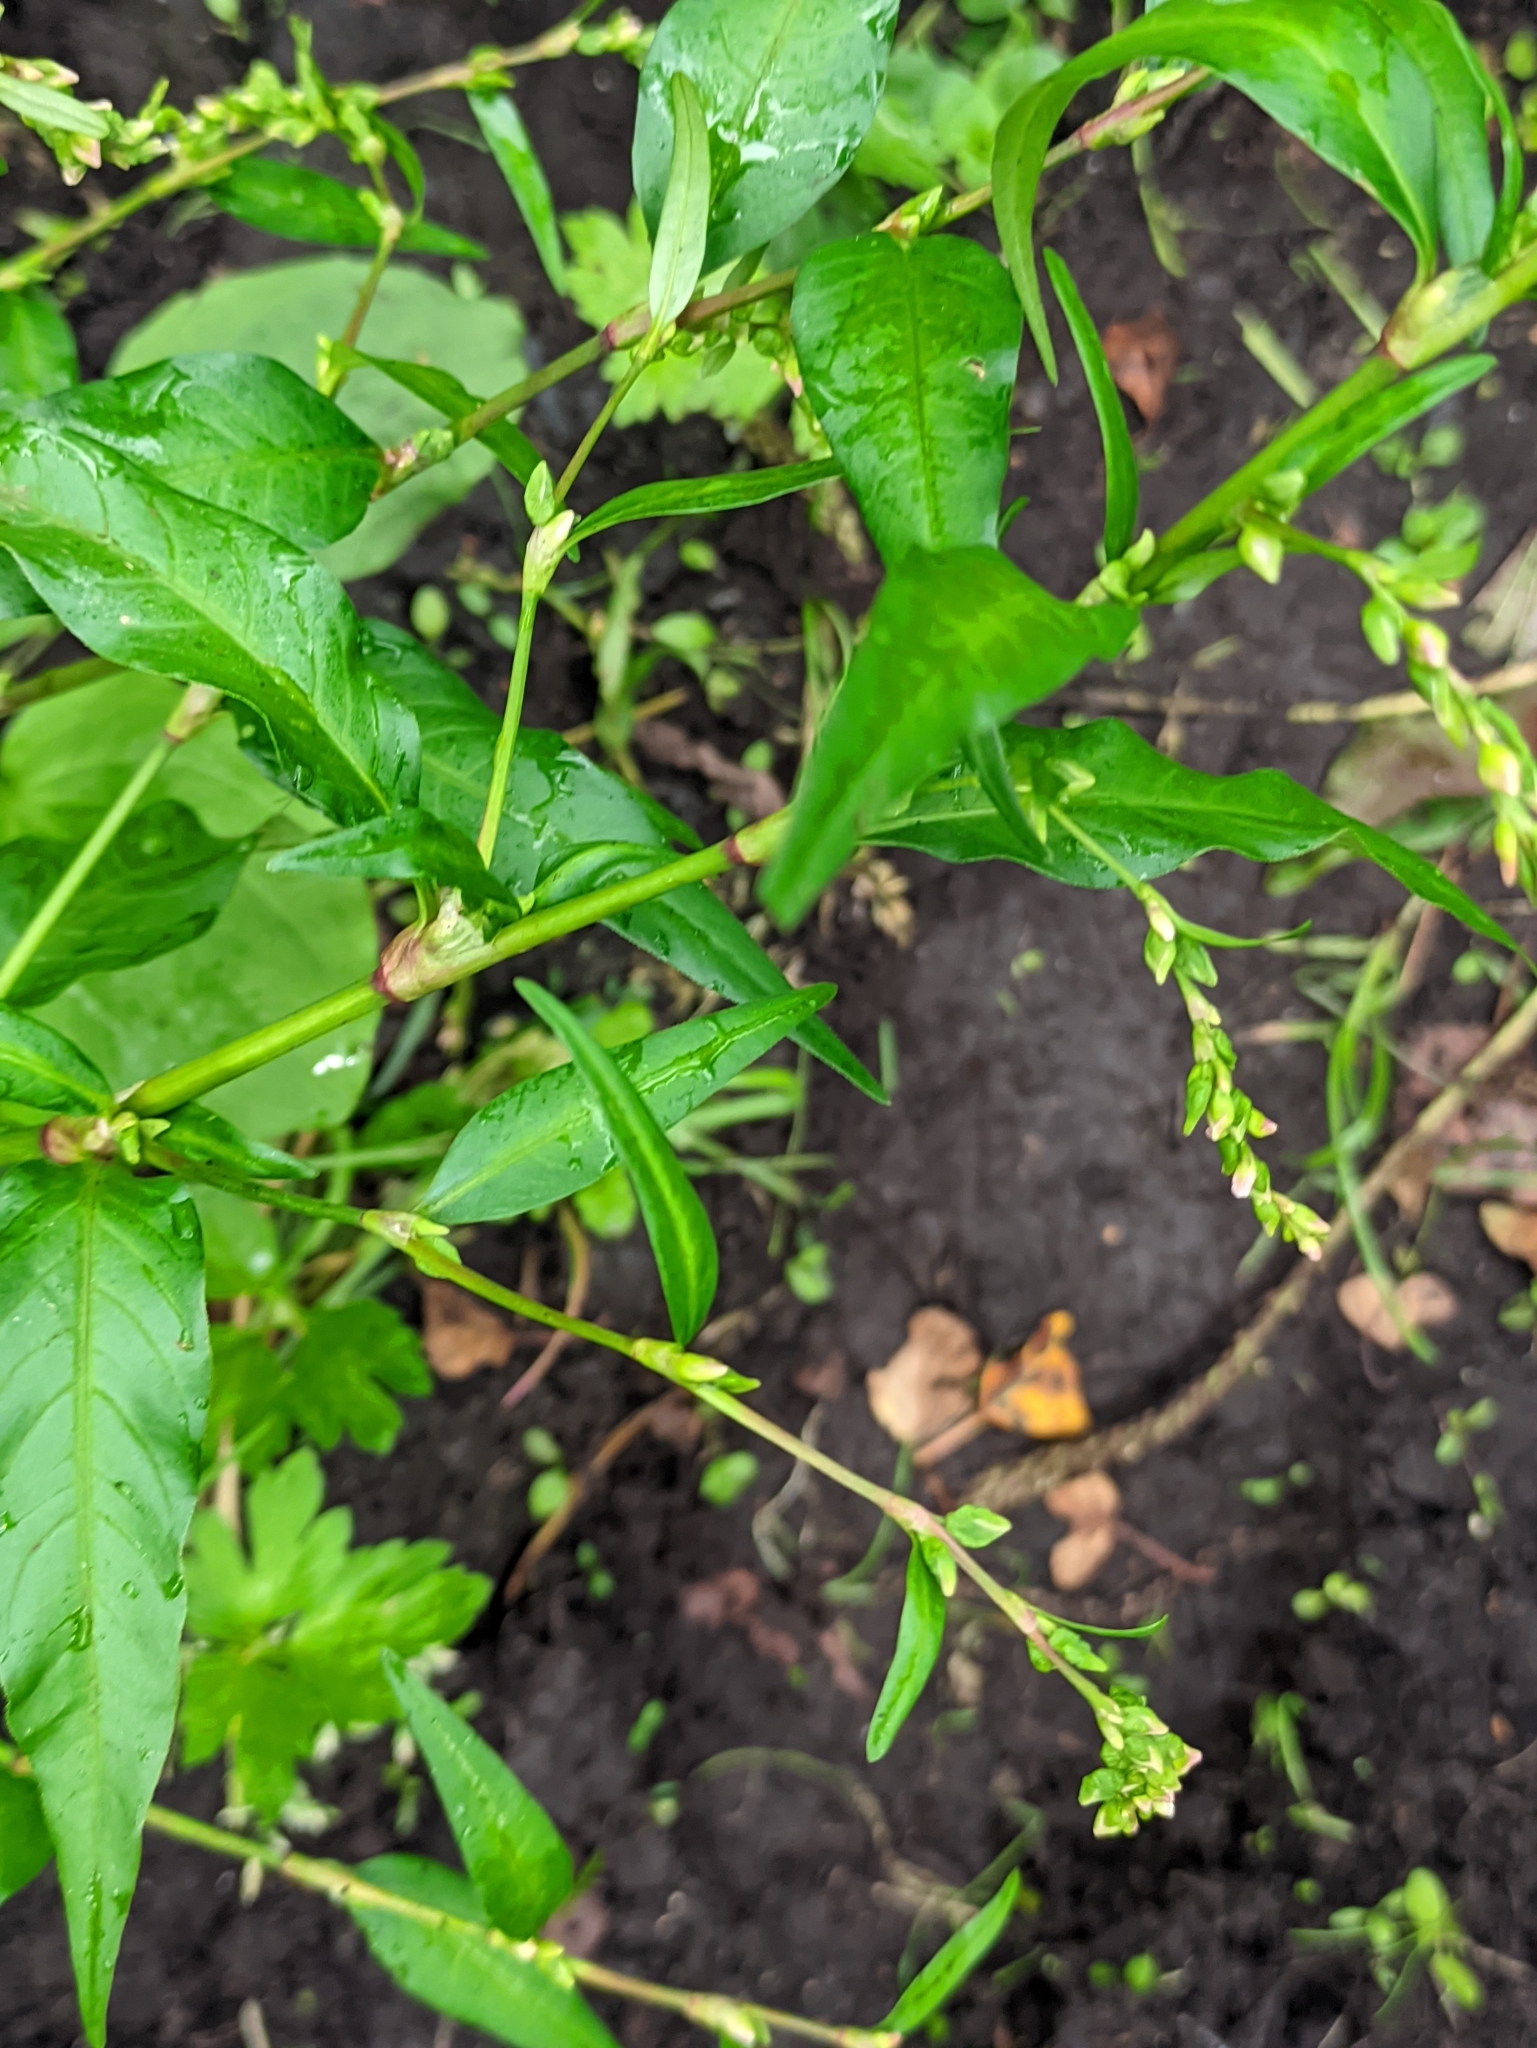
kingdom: Plantae
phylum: Tracheophyta
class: Magnoliopsida
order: Caryophyllales
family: Polygonaceae
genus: Persicaria
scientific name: Persicaria hydropiper
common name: Water-pepper
